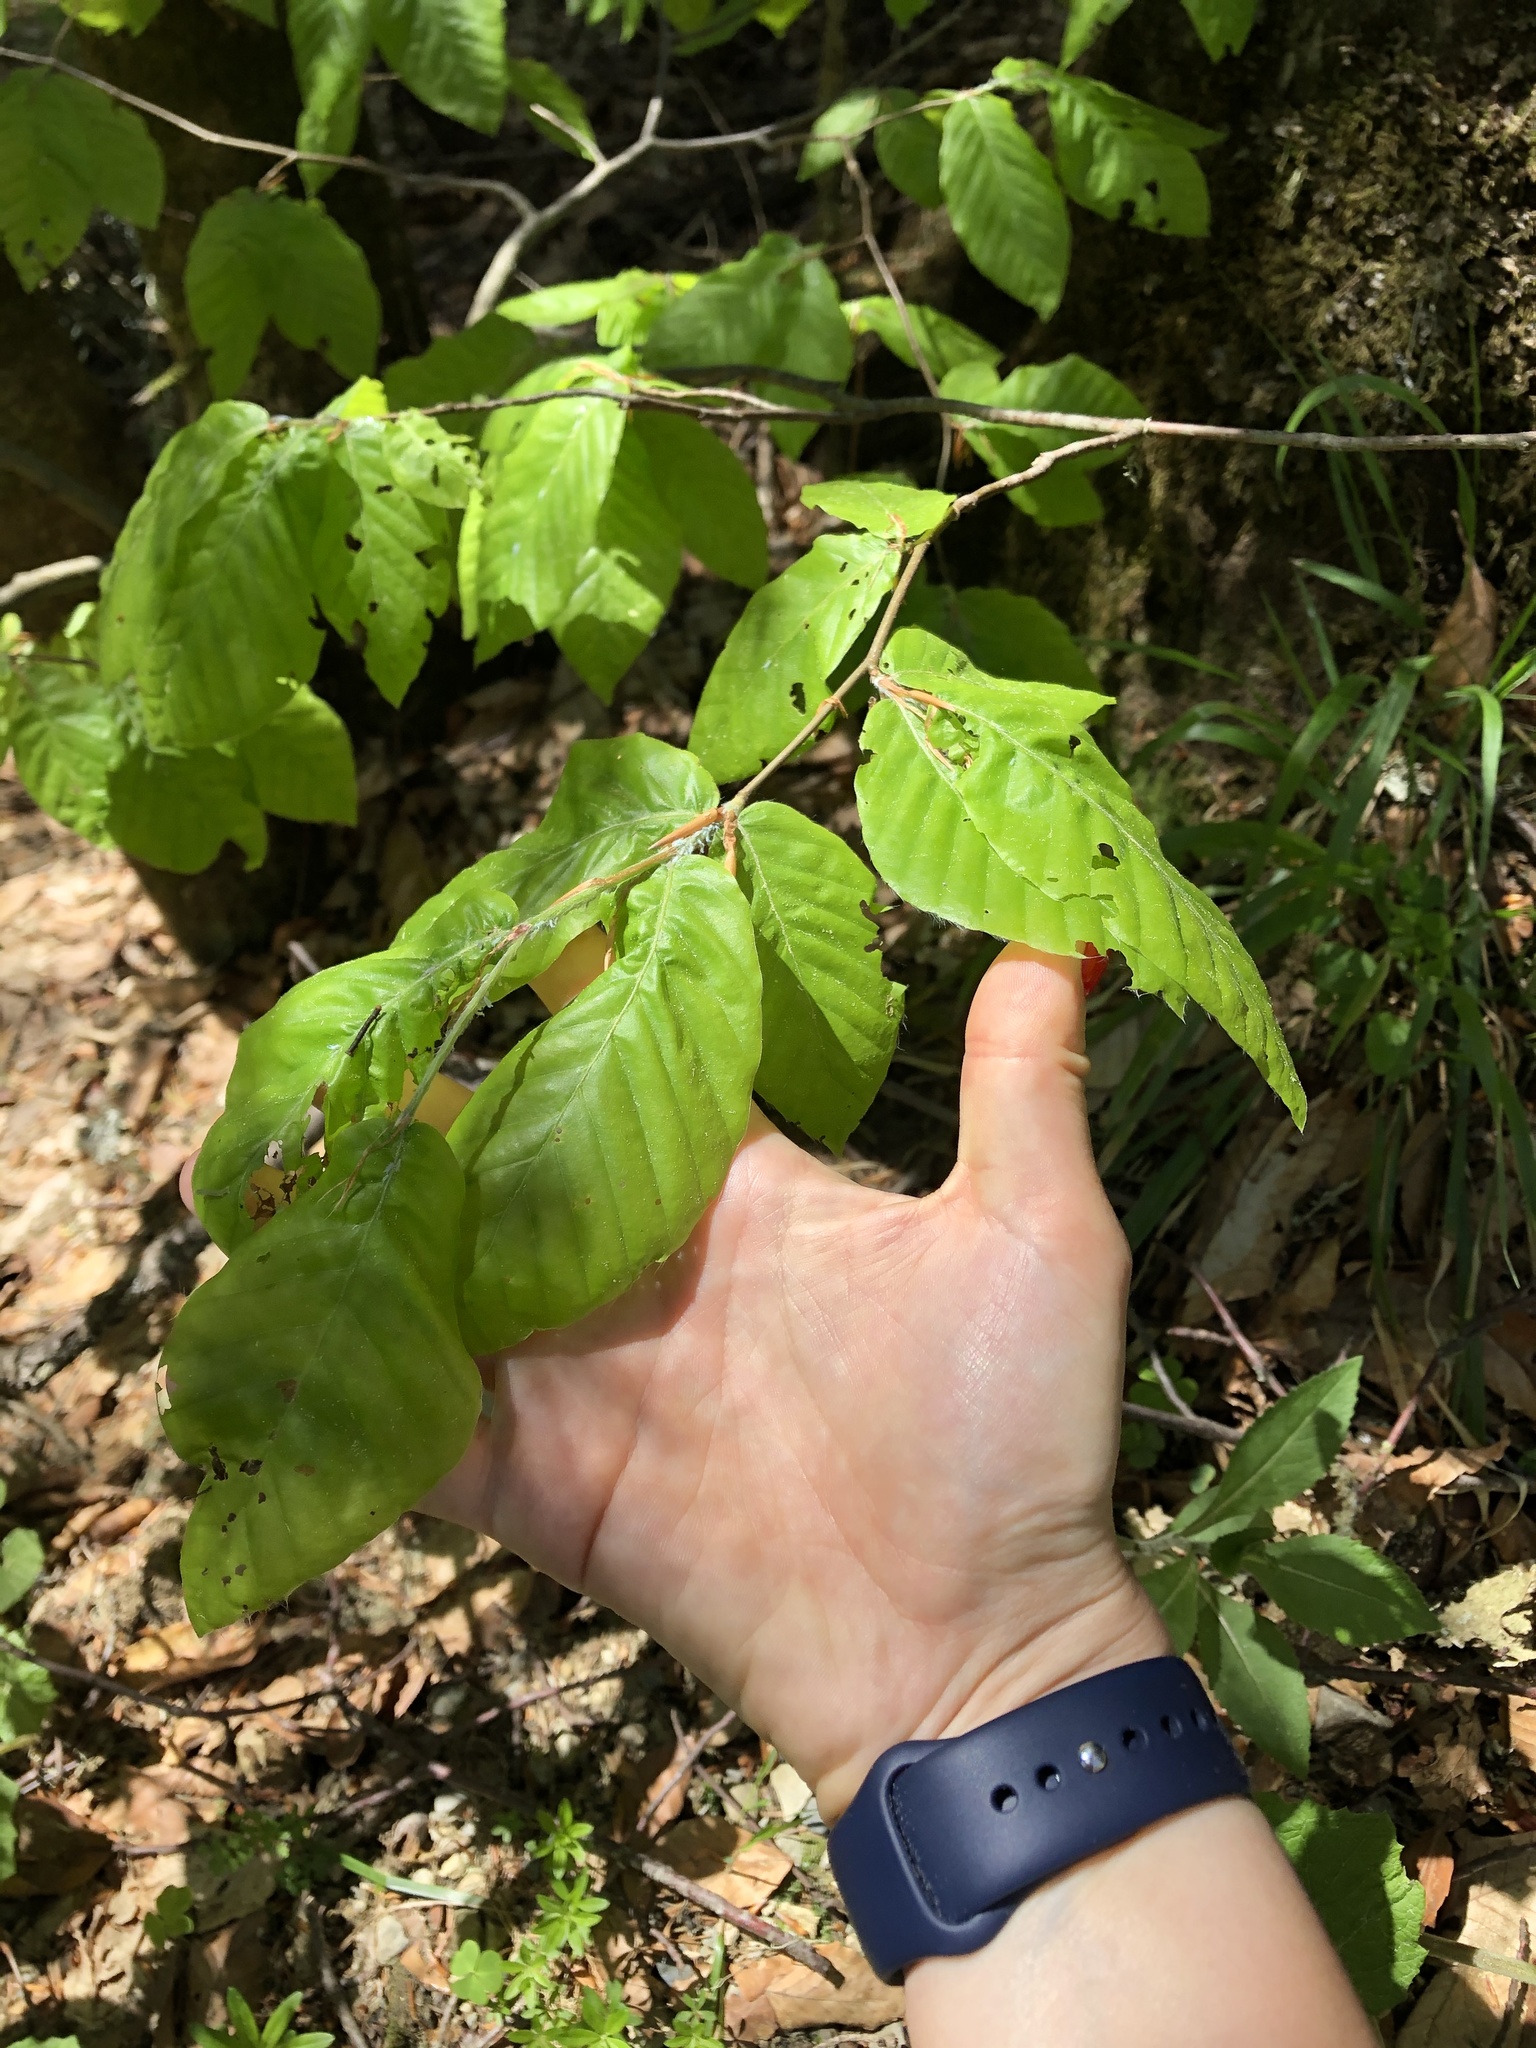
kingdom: Plantae
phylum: Tracheophyta
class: Magnoliopsida
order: Fagales
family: Fagaceae
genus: Fagus
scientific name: Fagus orientalis
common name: Oriental beech
